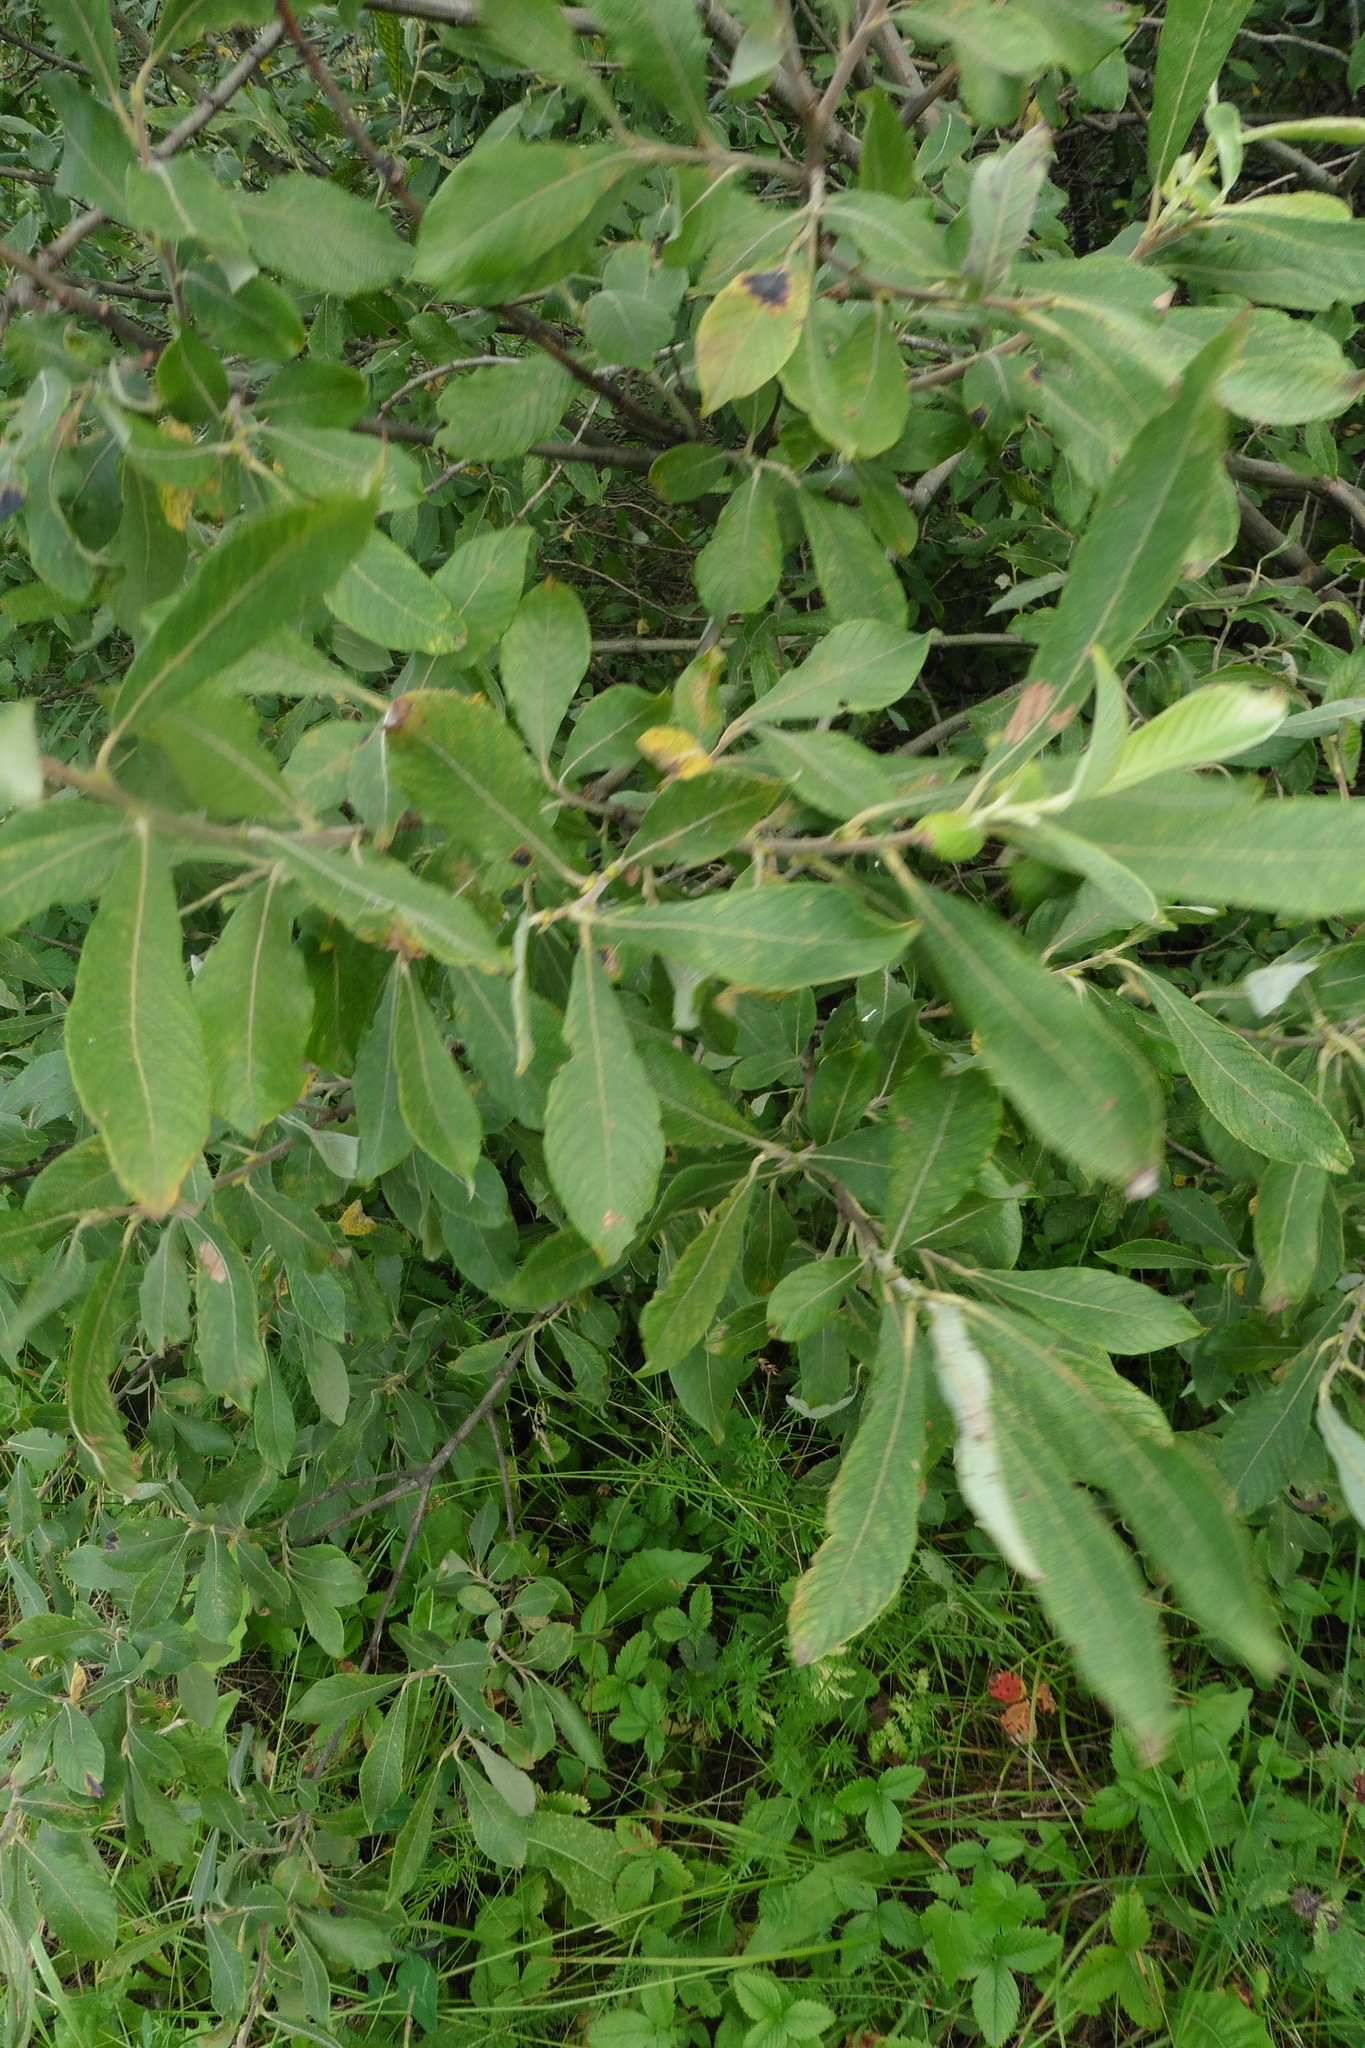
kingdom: Plantae
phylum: Tracheophyta
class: Magnoliopsida
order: Malpighiales
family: Salicaceae
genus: Salix
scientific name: Salix cinerea
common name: Common sallow
